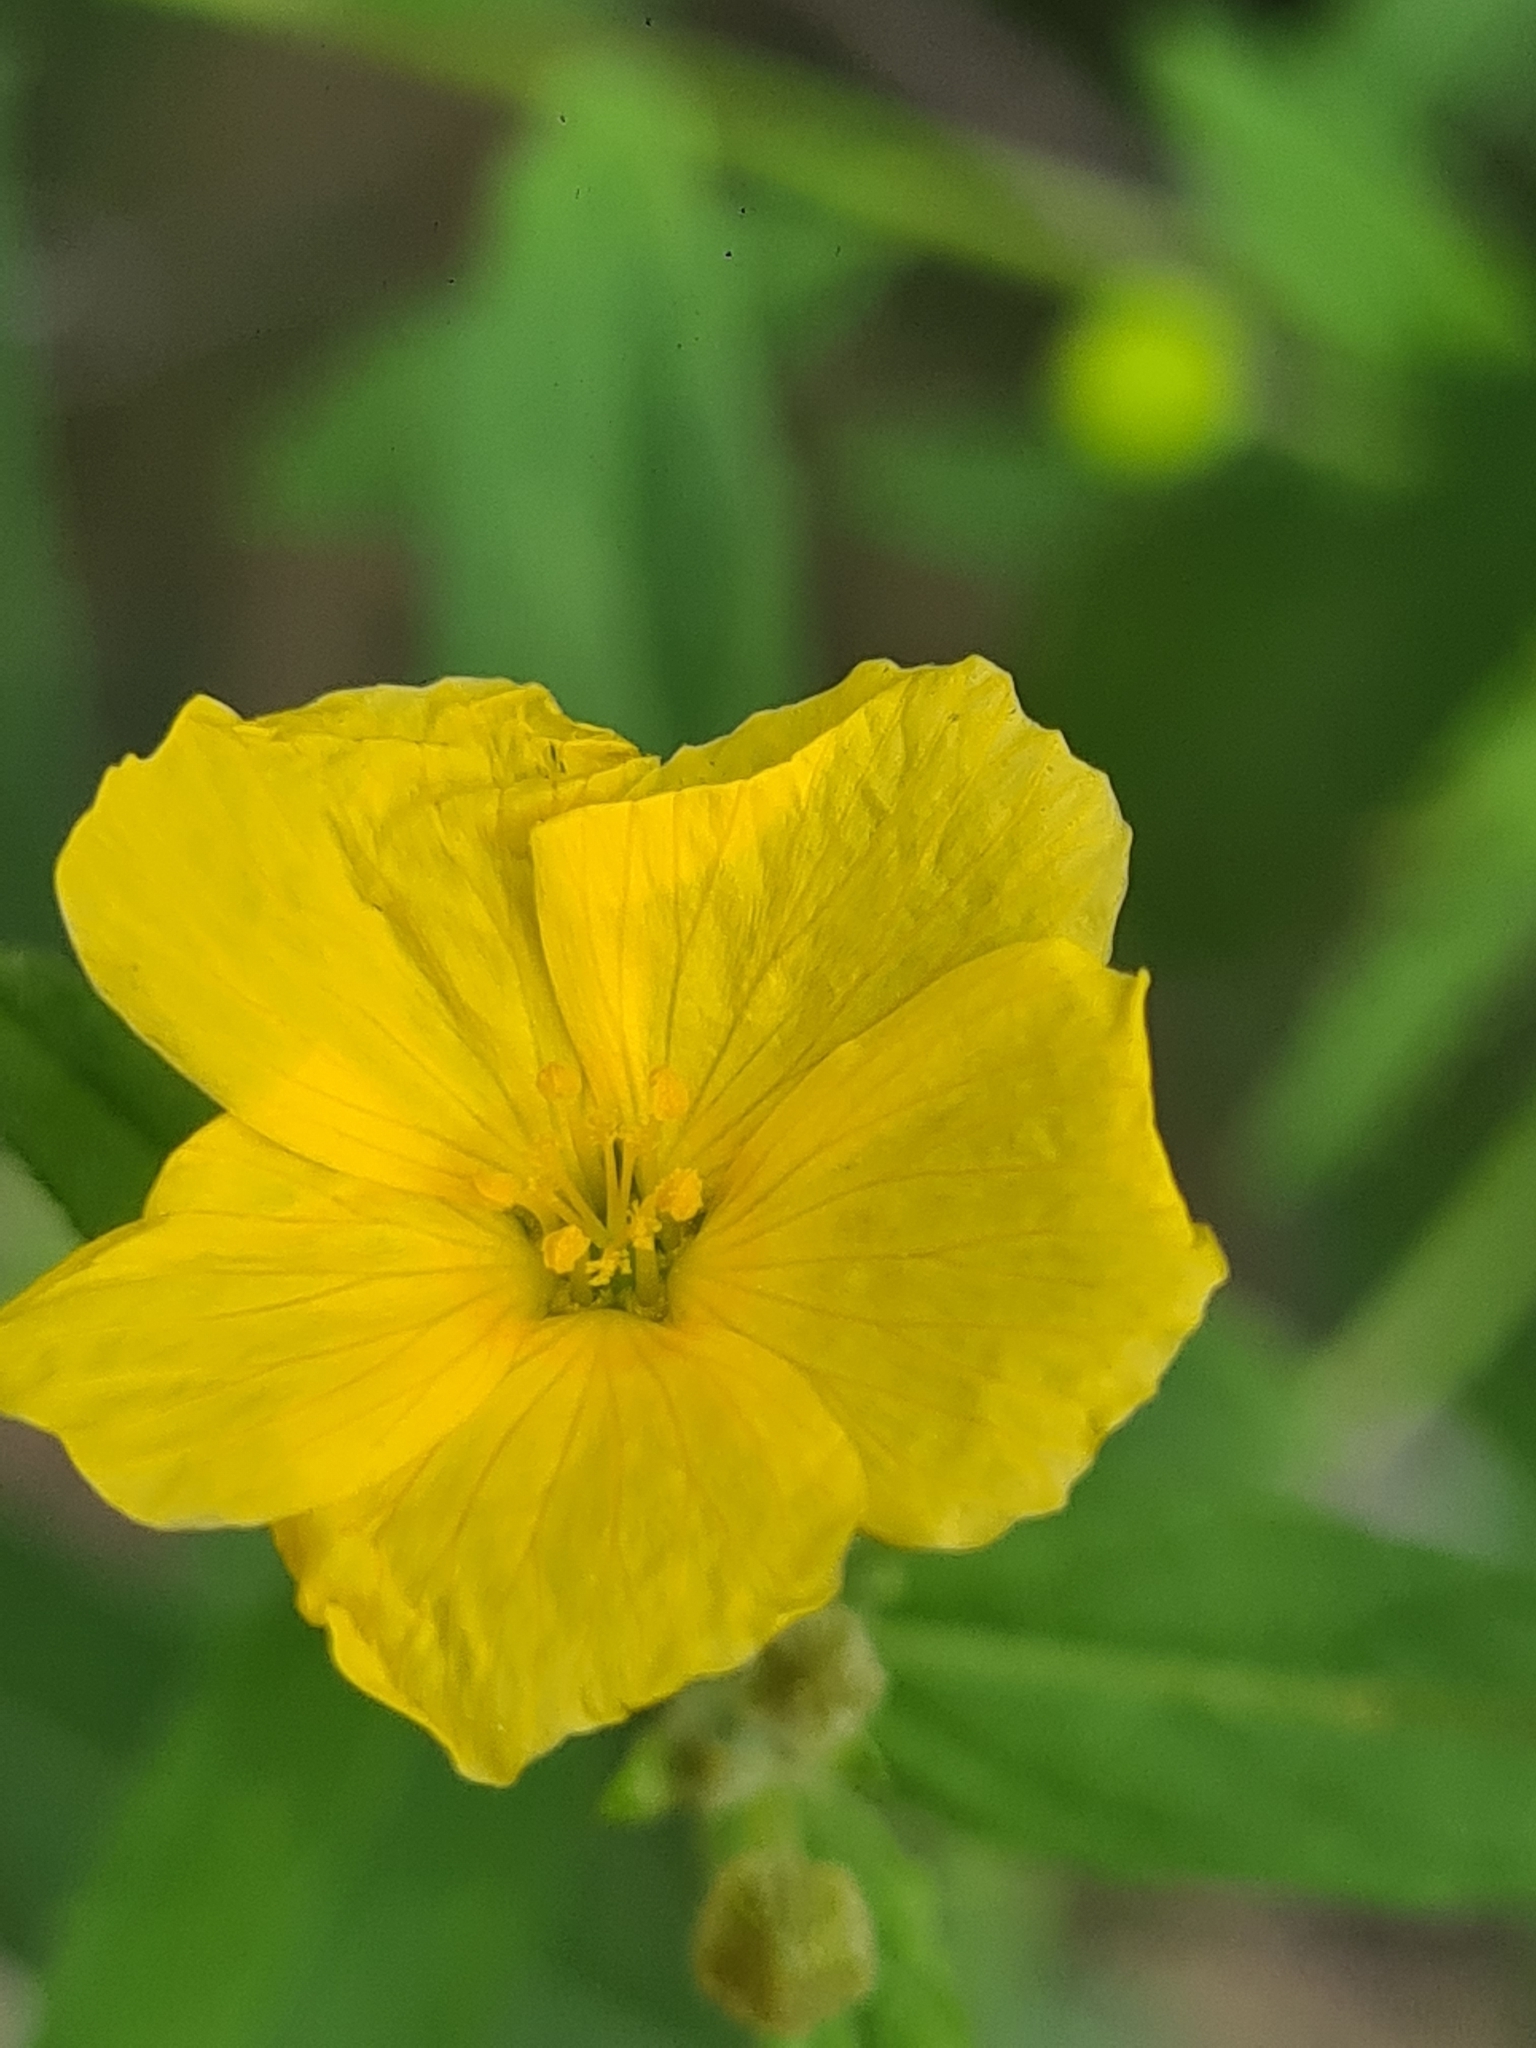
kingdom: Plantae
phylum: Tracheophyta
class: Magnoliopsida
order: Malpighiales
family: Turneraceae
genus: Piriqueta
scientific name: Piriqueta cistoides
